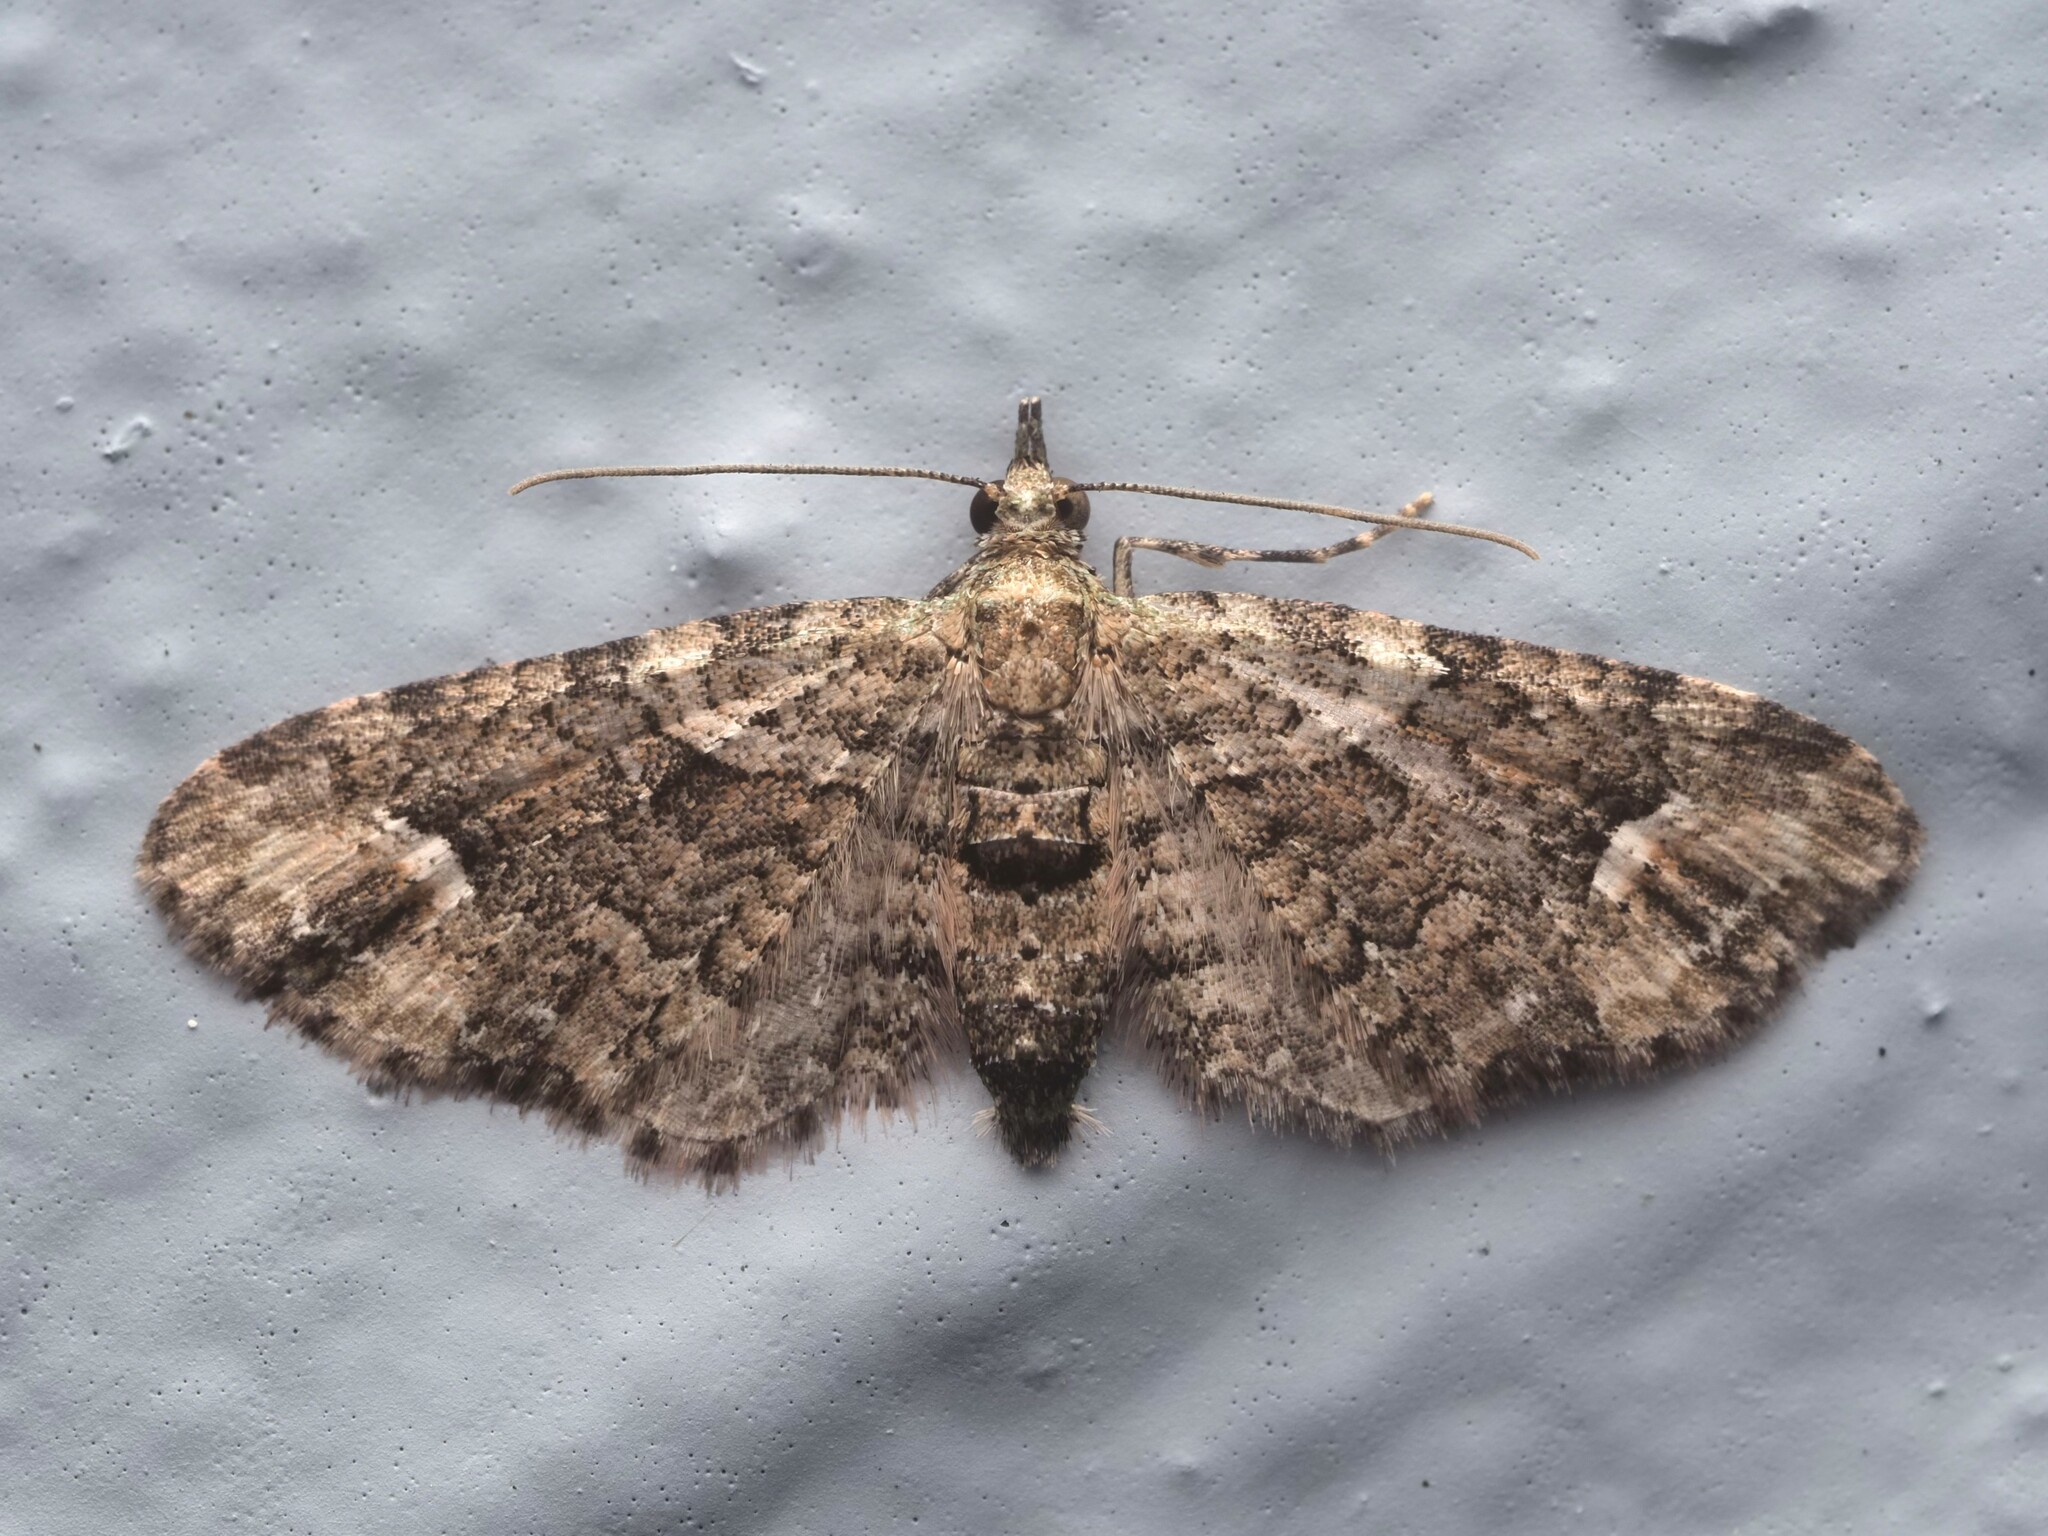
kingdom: Animalia
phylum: Arthropoda
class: Insecta
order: Lepidoptera
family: Geometridae
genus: Idaea
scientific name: Idaea mutanda
